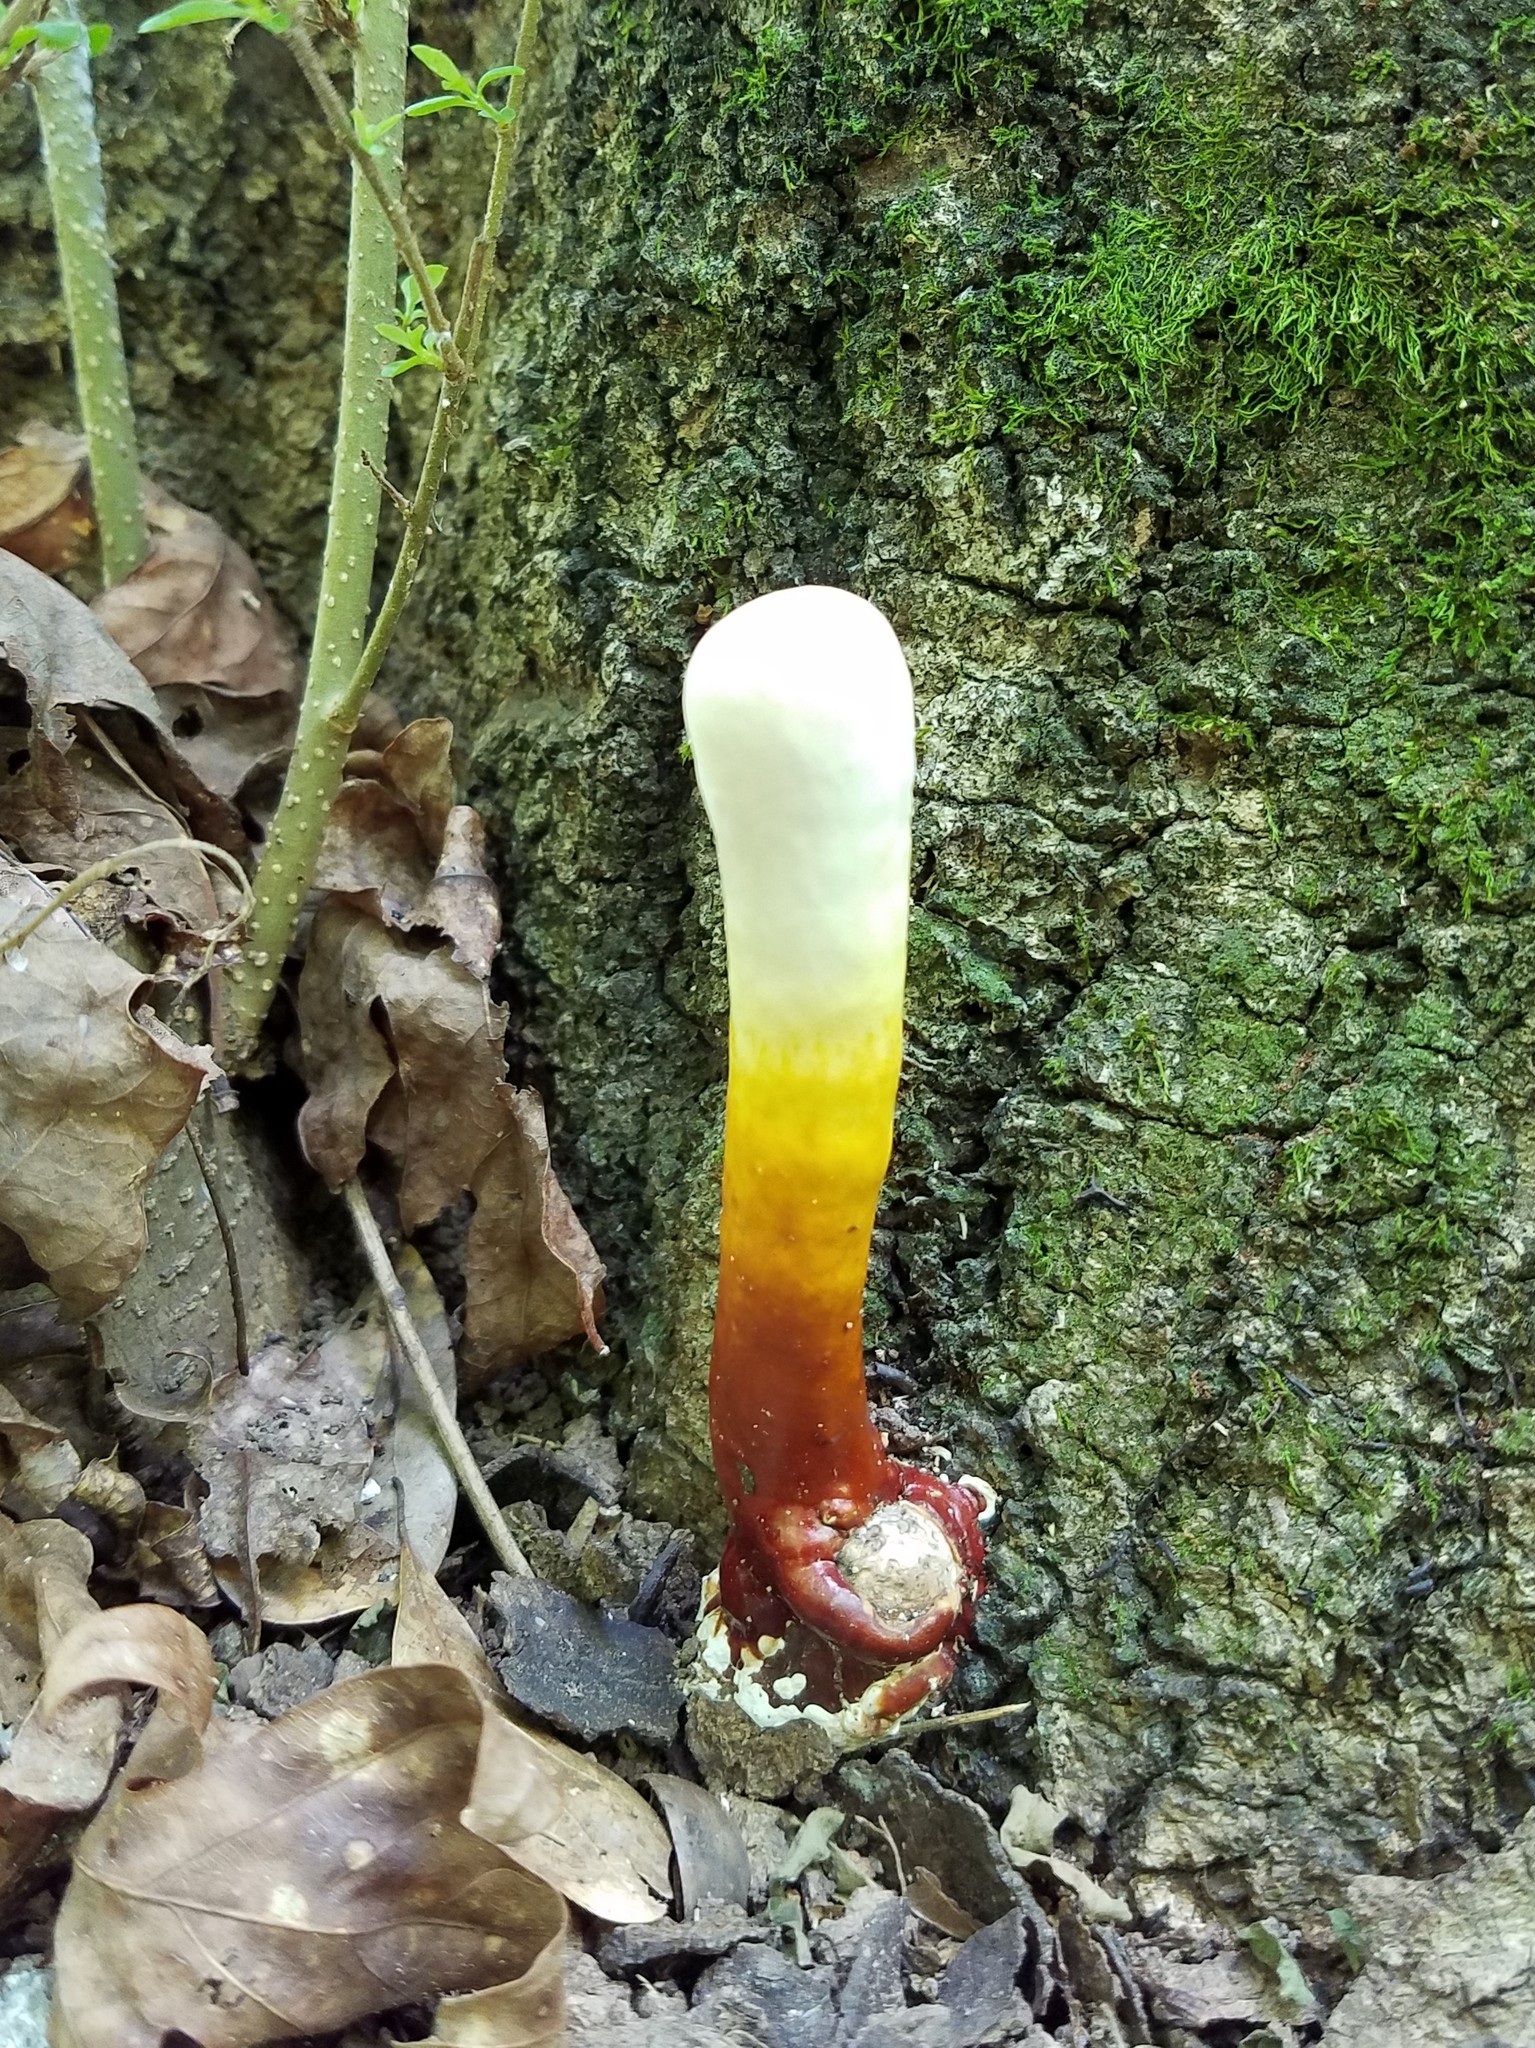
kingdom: Fungi
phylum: Basidiomycota
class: Agaricomycetes
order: Polyporales
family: Polyporaceae
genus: Ganoderma
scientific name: Ganoderma curtisii
